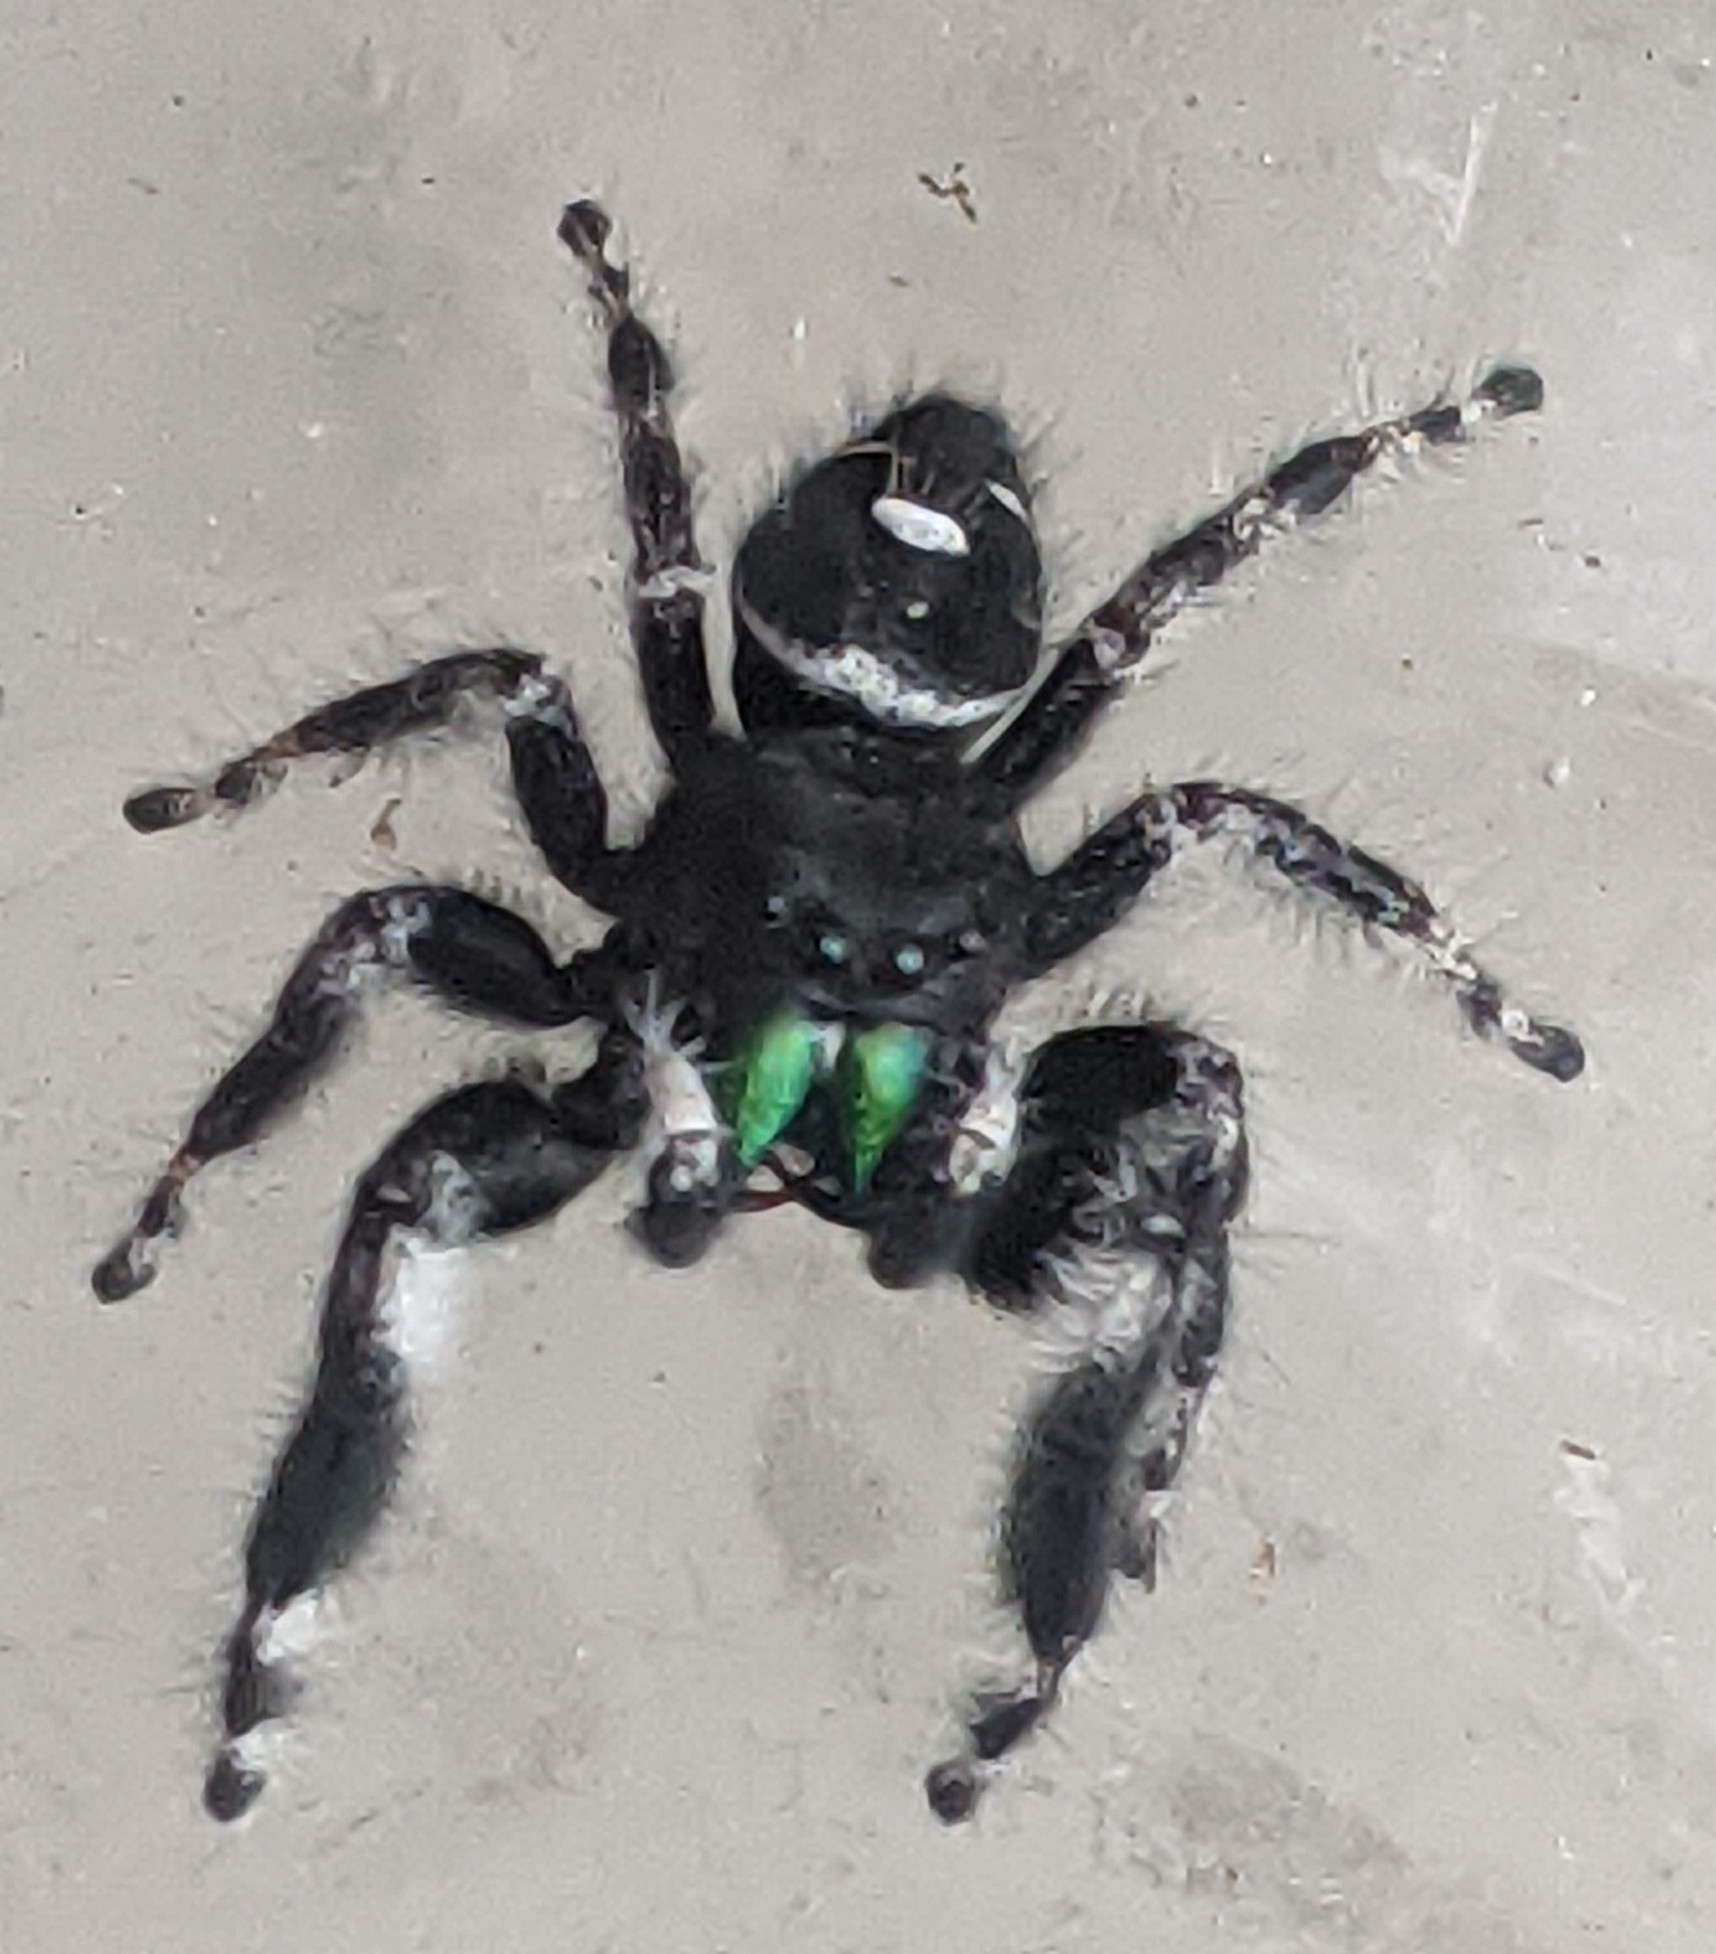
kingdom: Animalia
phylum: Arthropoda
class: Arachnida
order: Araneae
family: Salticidae
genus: Phidippus
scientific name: Phidippus audax
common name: Bold jumper
